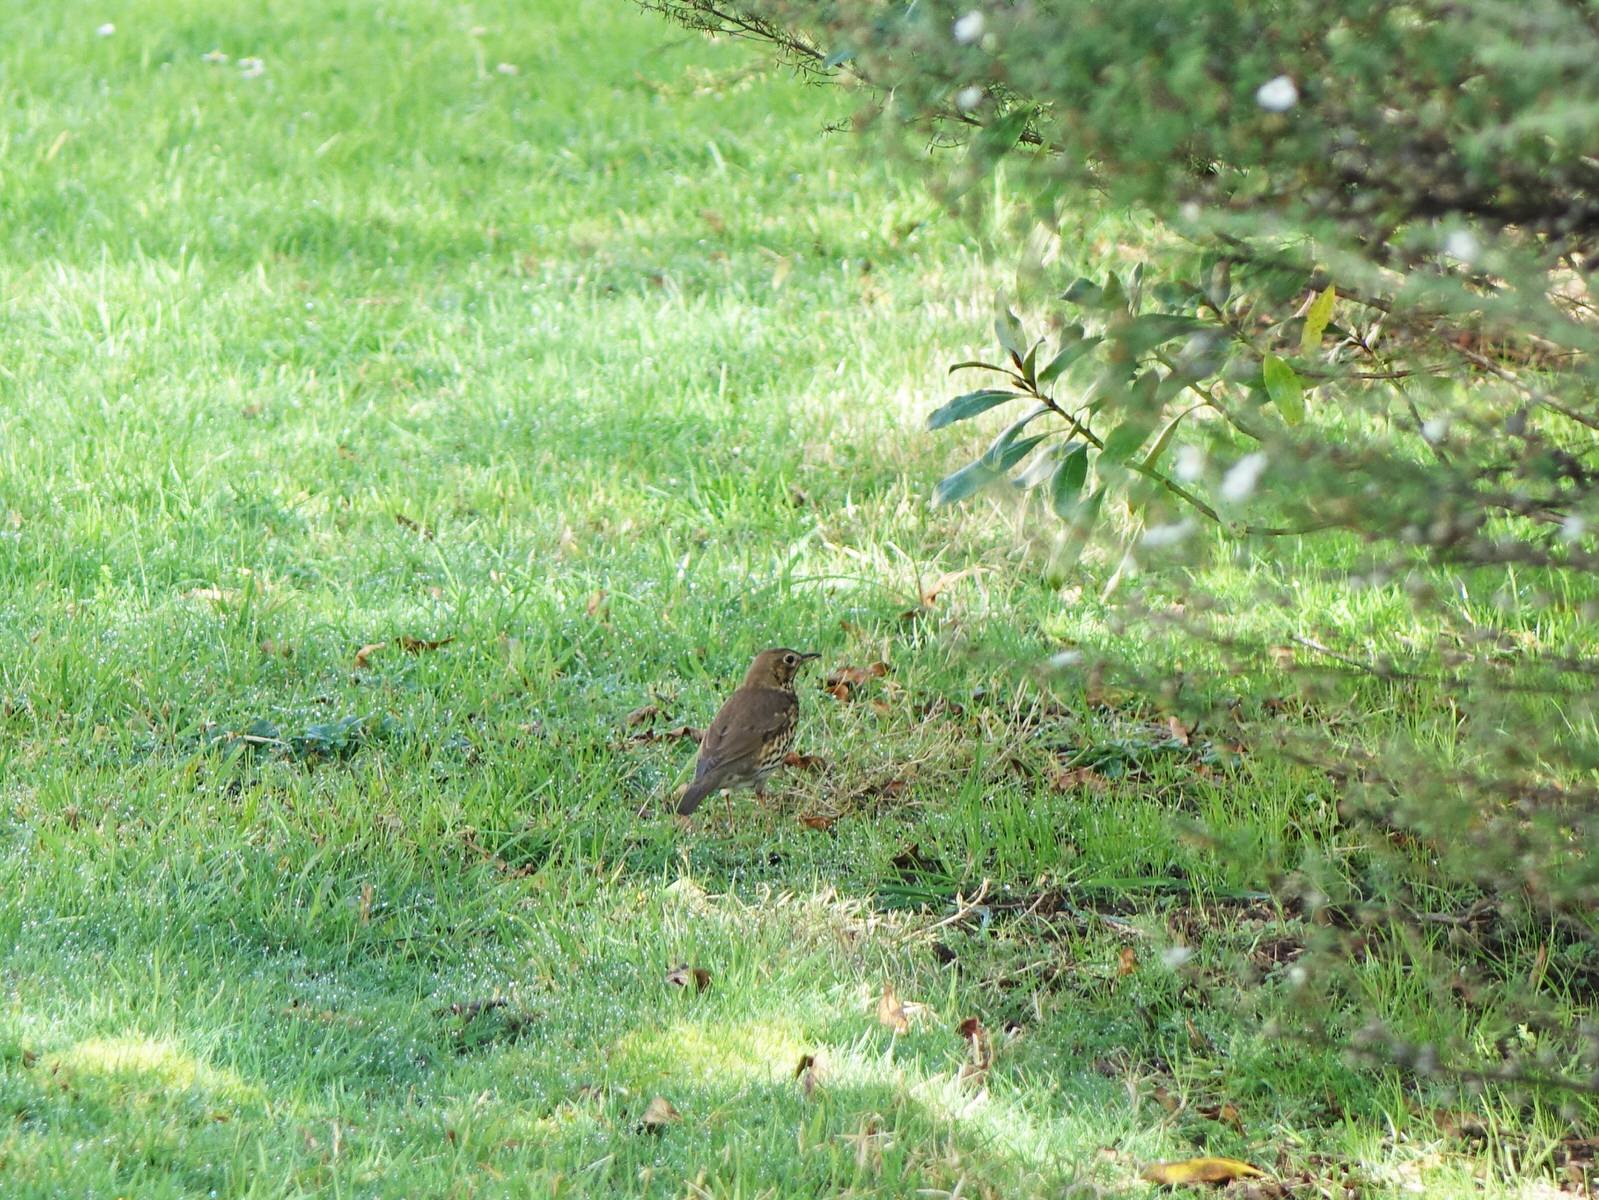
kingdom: Animalia
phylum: Chordata
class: Aves
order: Passeriformes
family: Turdidae
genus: Turdus
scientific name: Turdus philomelos
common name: Song thrush
